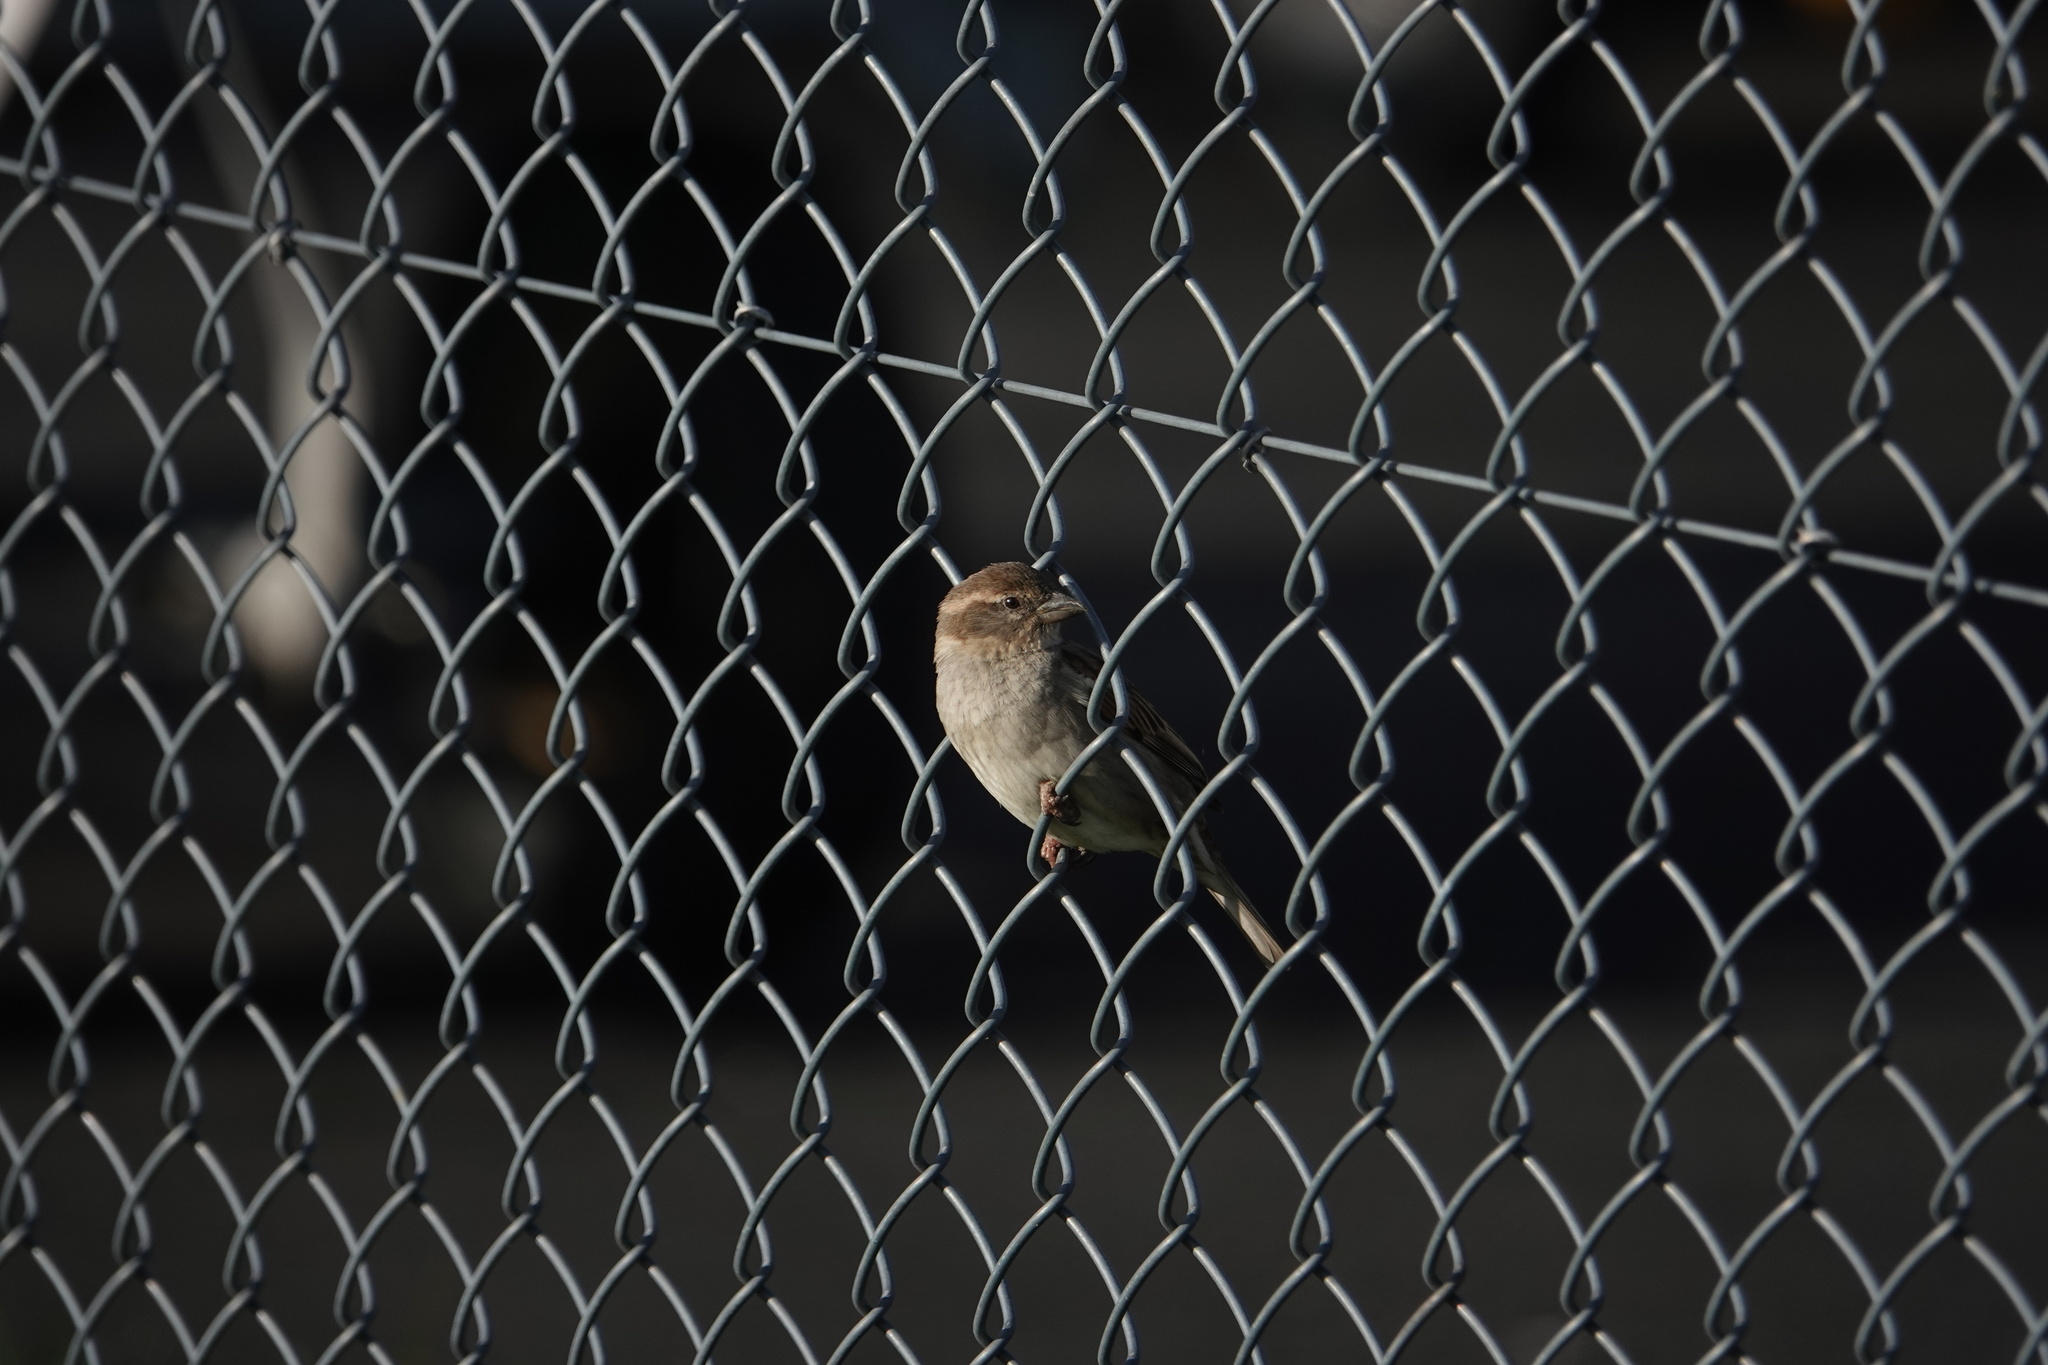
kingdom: Animalia
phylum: Chordata
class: Aves
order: Passeriformes
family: Passeridae
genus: Passer
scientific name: Passer domesticus
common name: House sparrow
